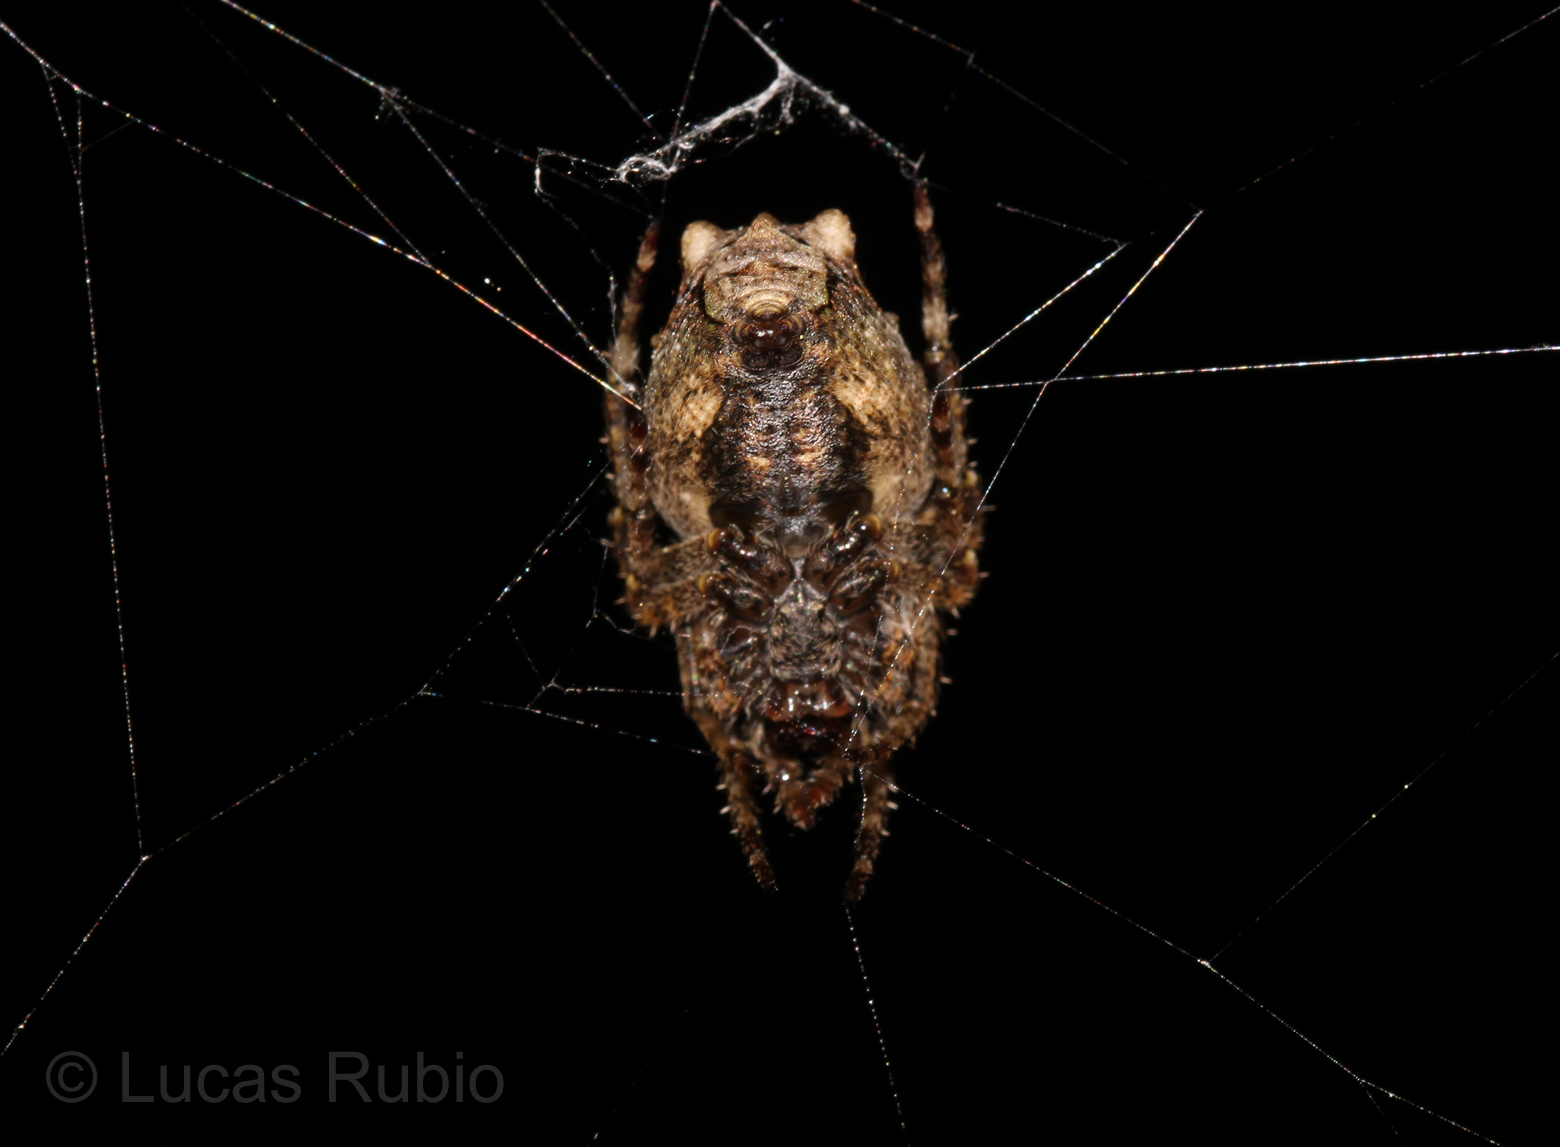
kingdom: Animalia
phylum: Arthropoda
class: Arachnida
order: Araneae
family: Araneidae
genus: Parawixia
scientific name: Parawixia velutina
